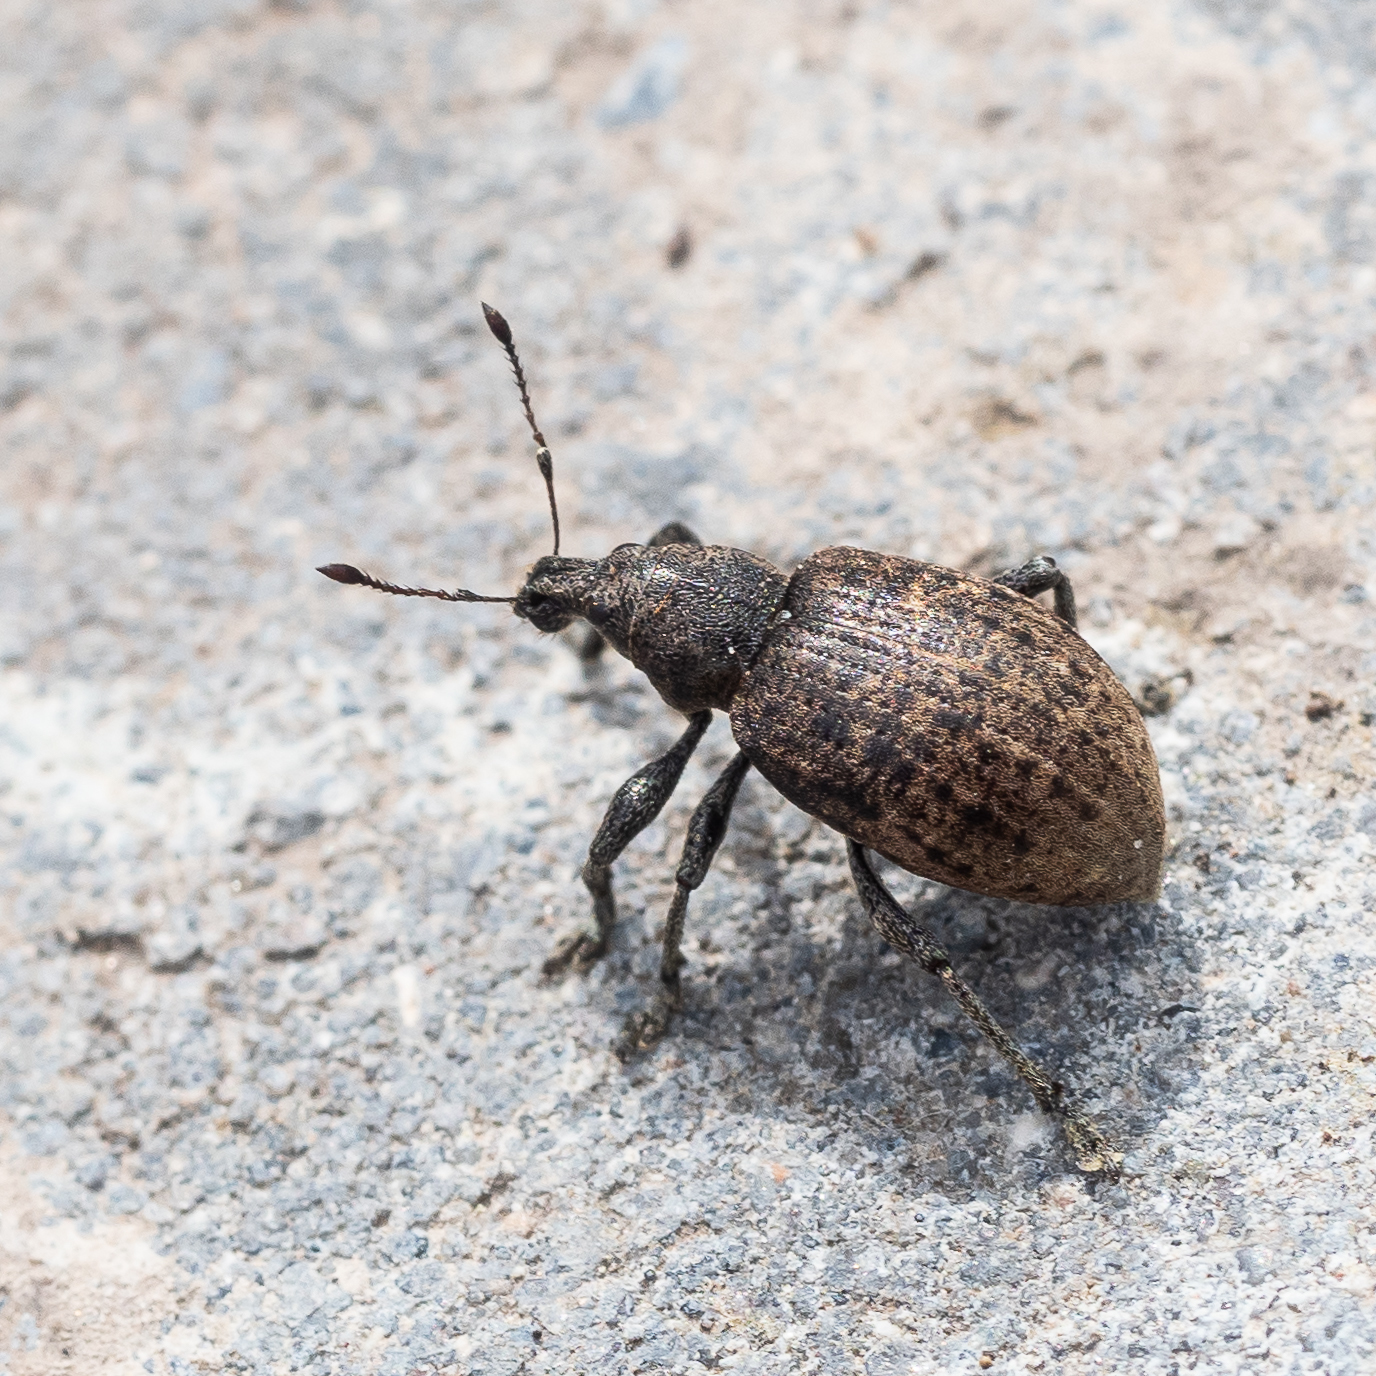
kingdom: Animalia
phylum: Arthropoda
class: Insecta
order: Coleoptera
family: Curculionidae
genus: Liophloeus
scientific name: Liophloeus tessulatus
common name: Weevil
